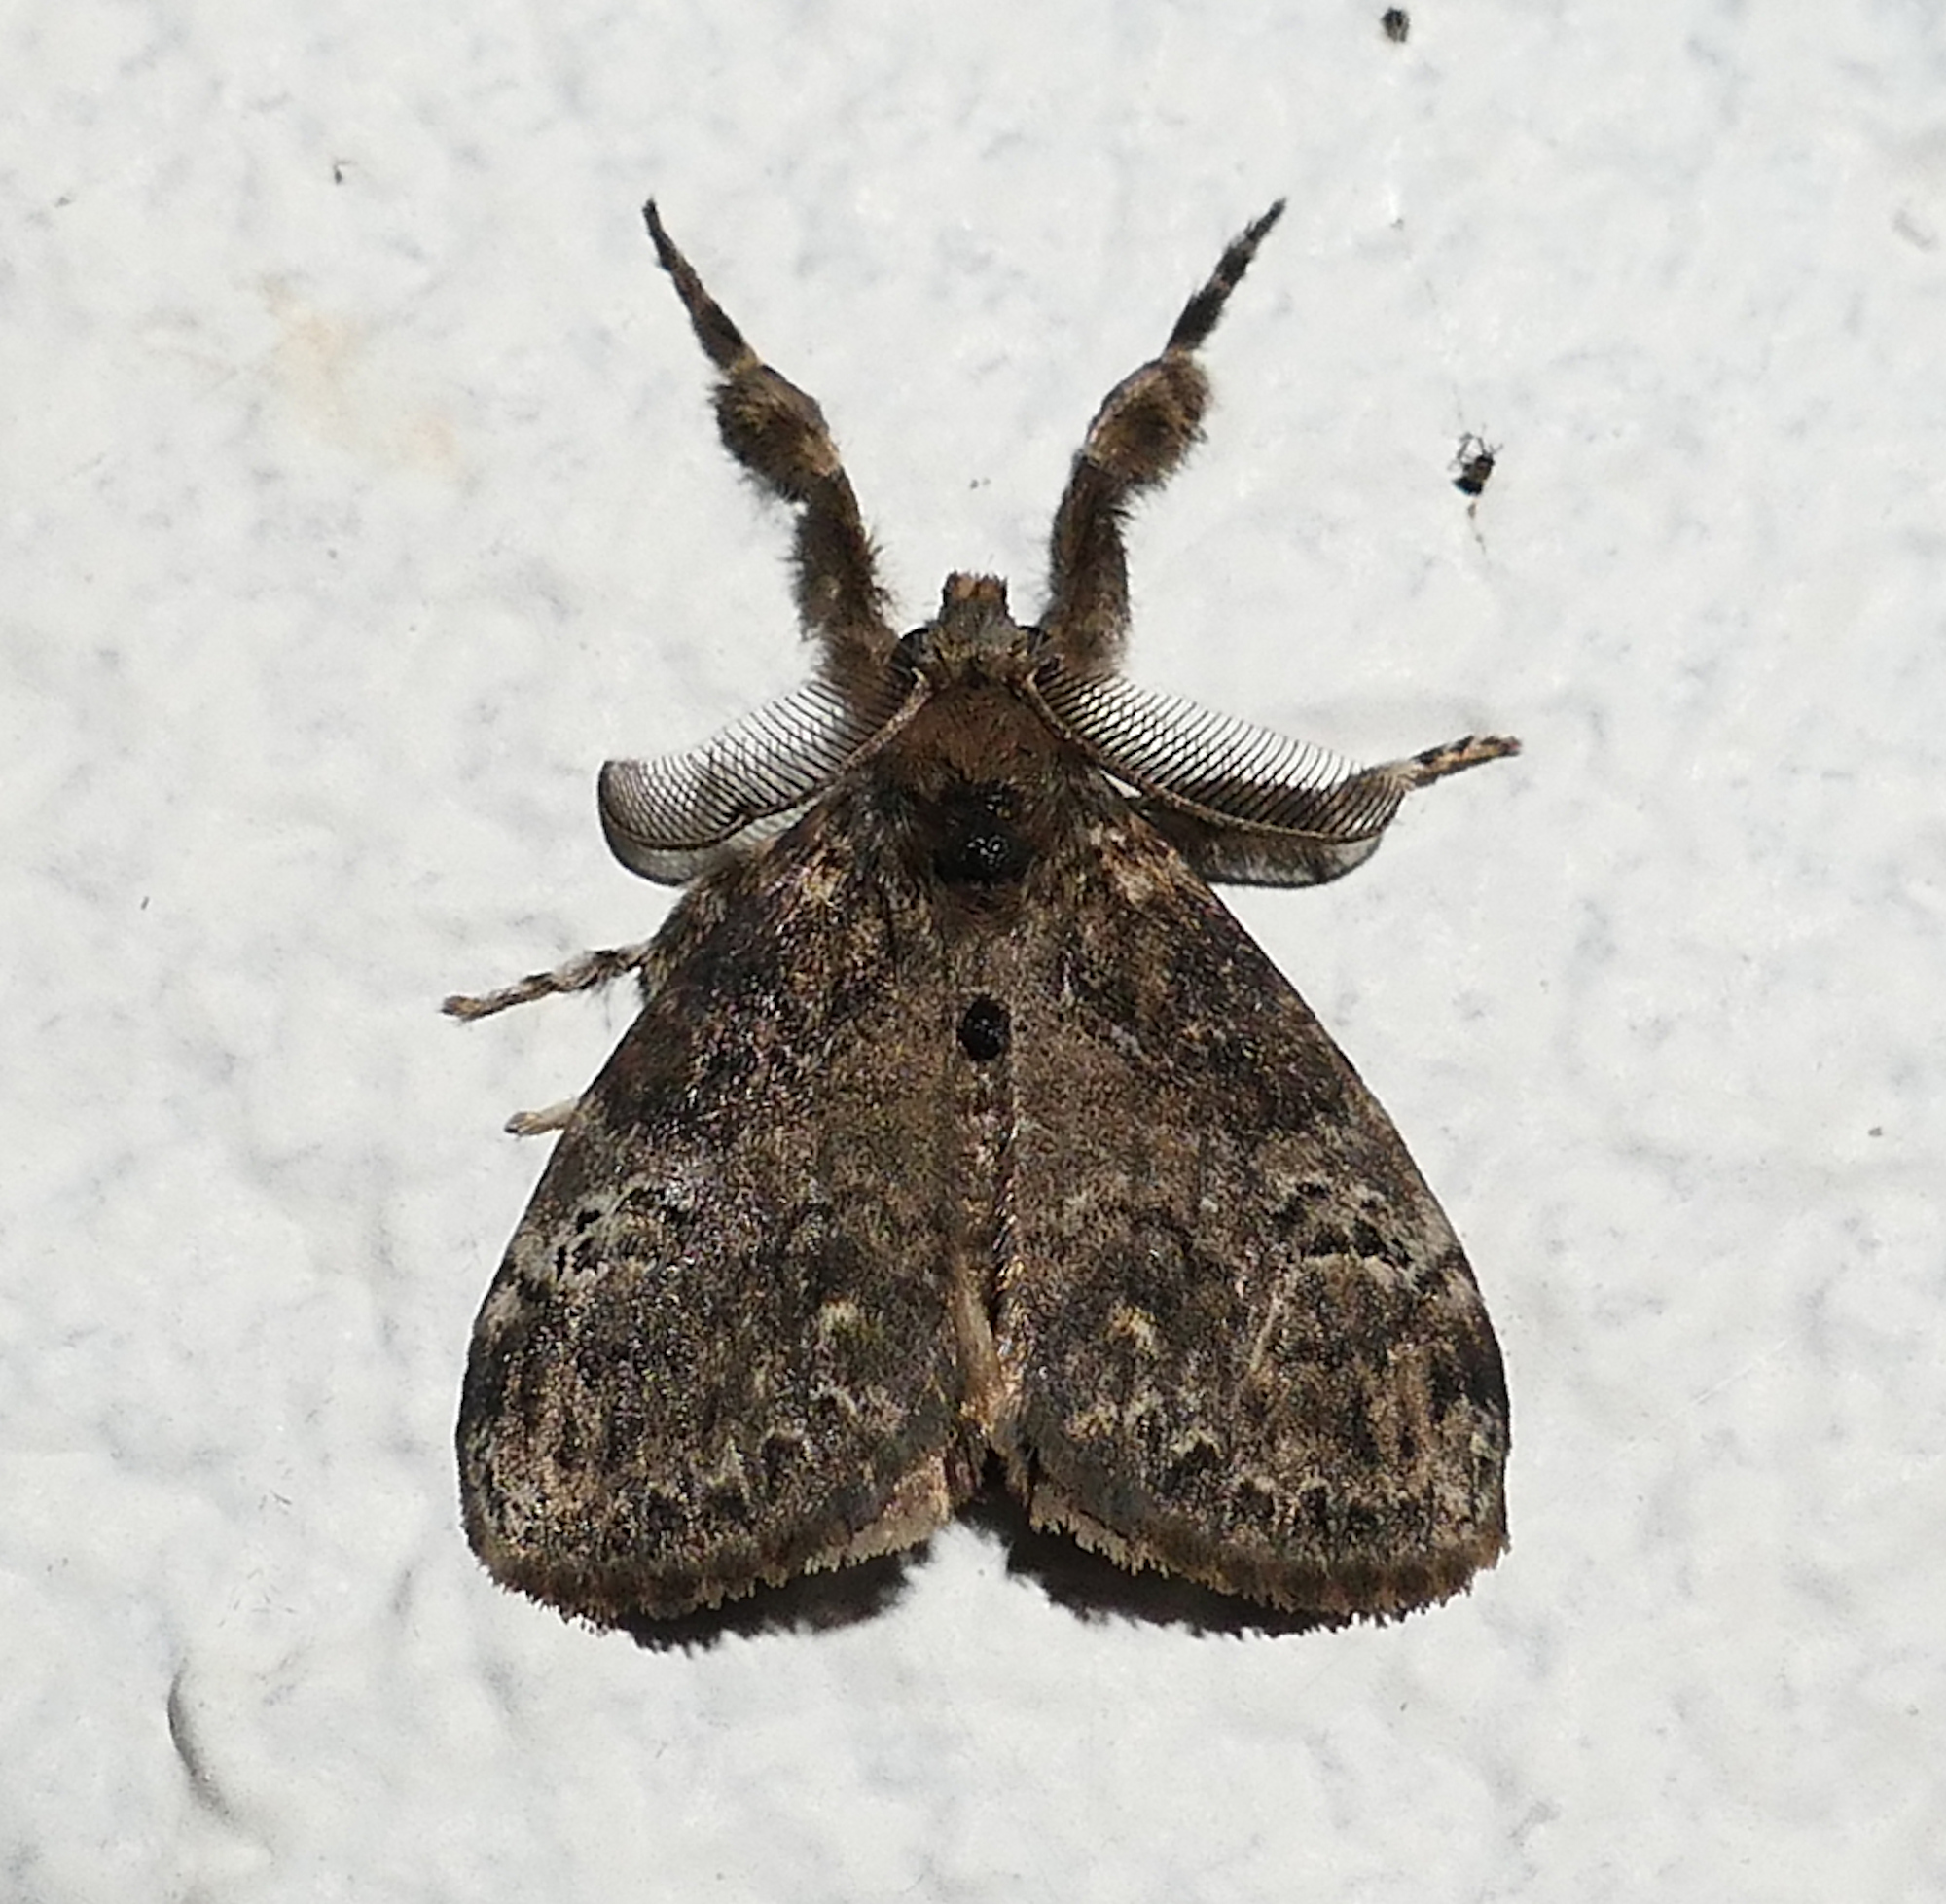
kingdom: Animalia
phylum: Arthropoda
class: Insecta
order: Lepidoptera
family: Erebidae
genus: Orgyia
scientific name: Orgyia detrita
